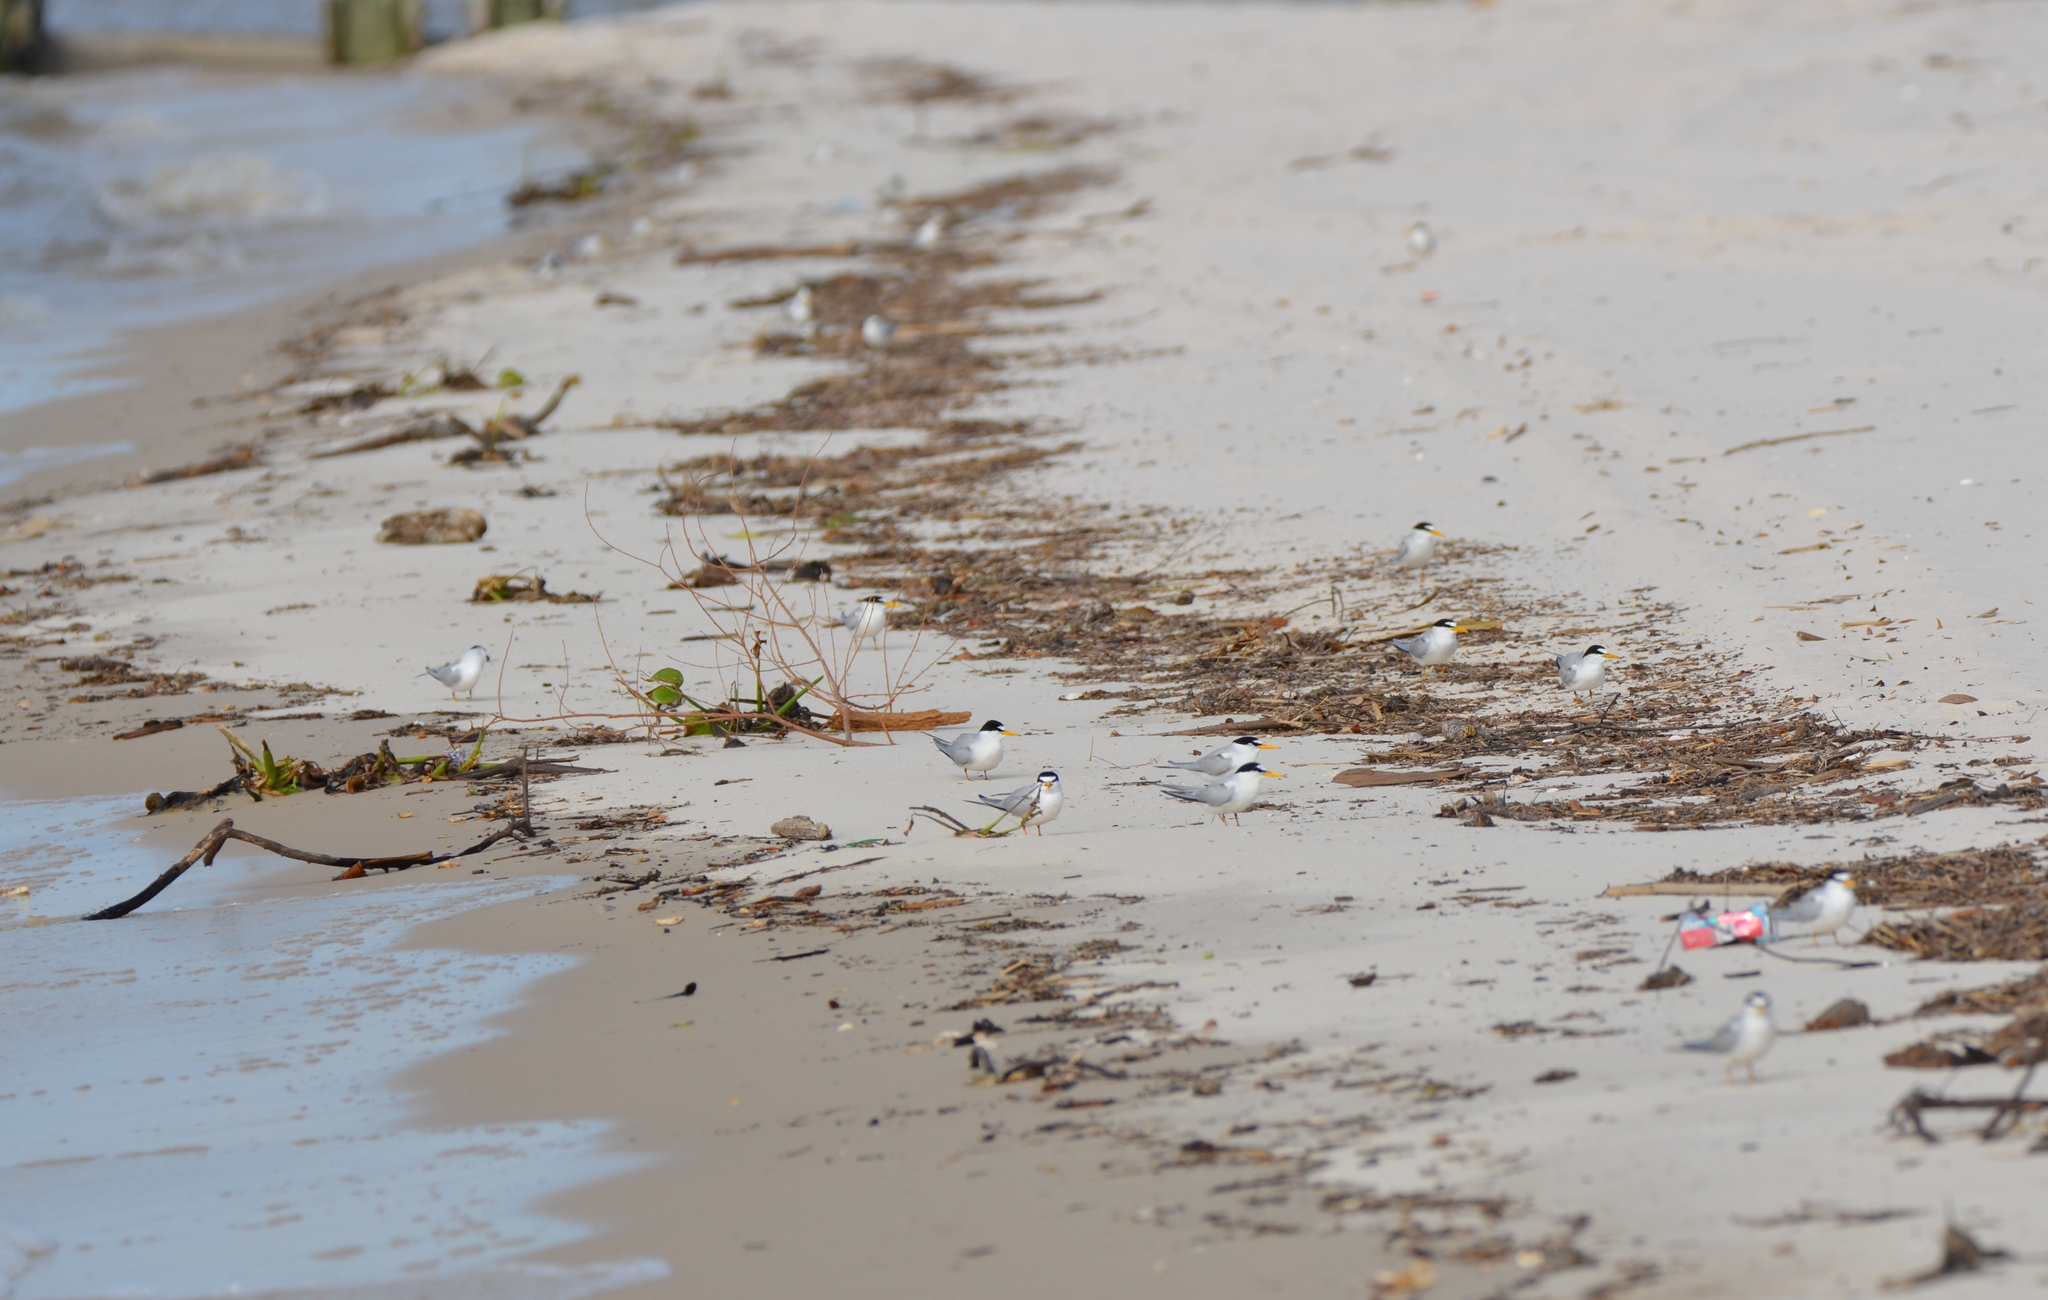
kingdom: Animalia
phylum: Chordata
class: Aves
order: Charadriiformes
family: Laridae
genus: Sternula
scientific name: Sternula antillarum
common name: Least tern
